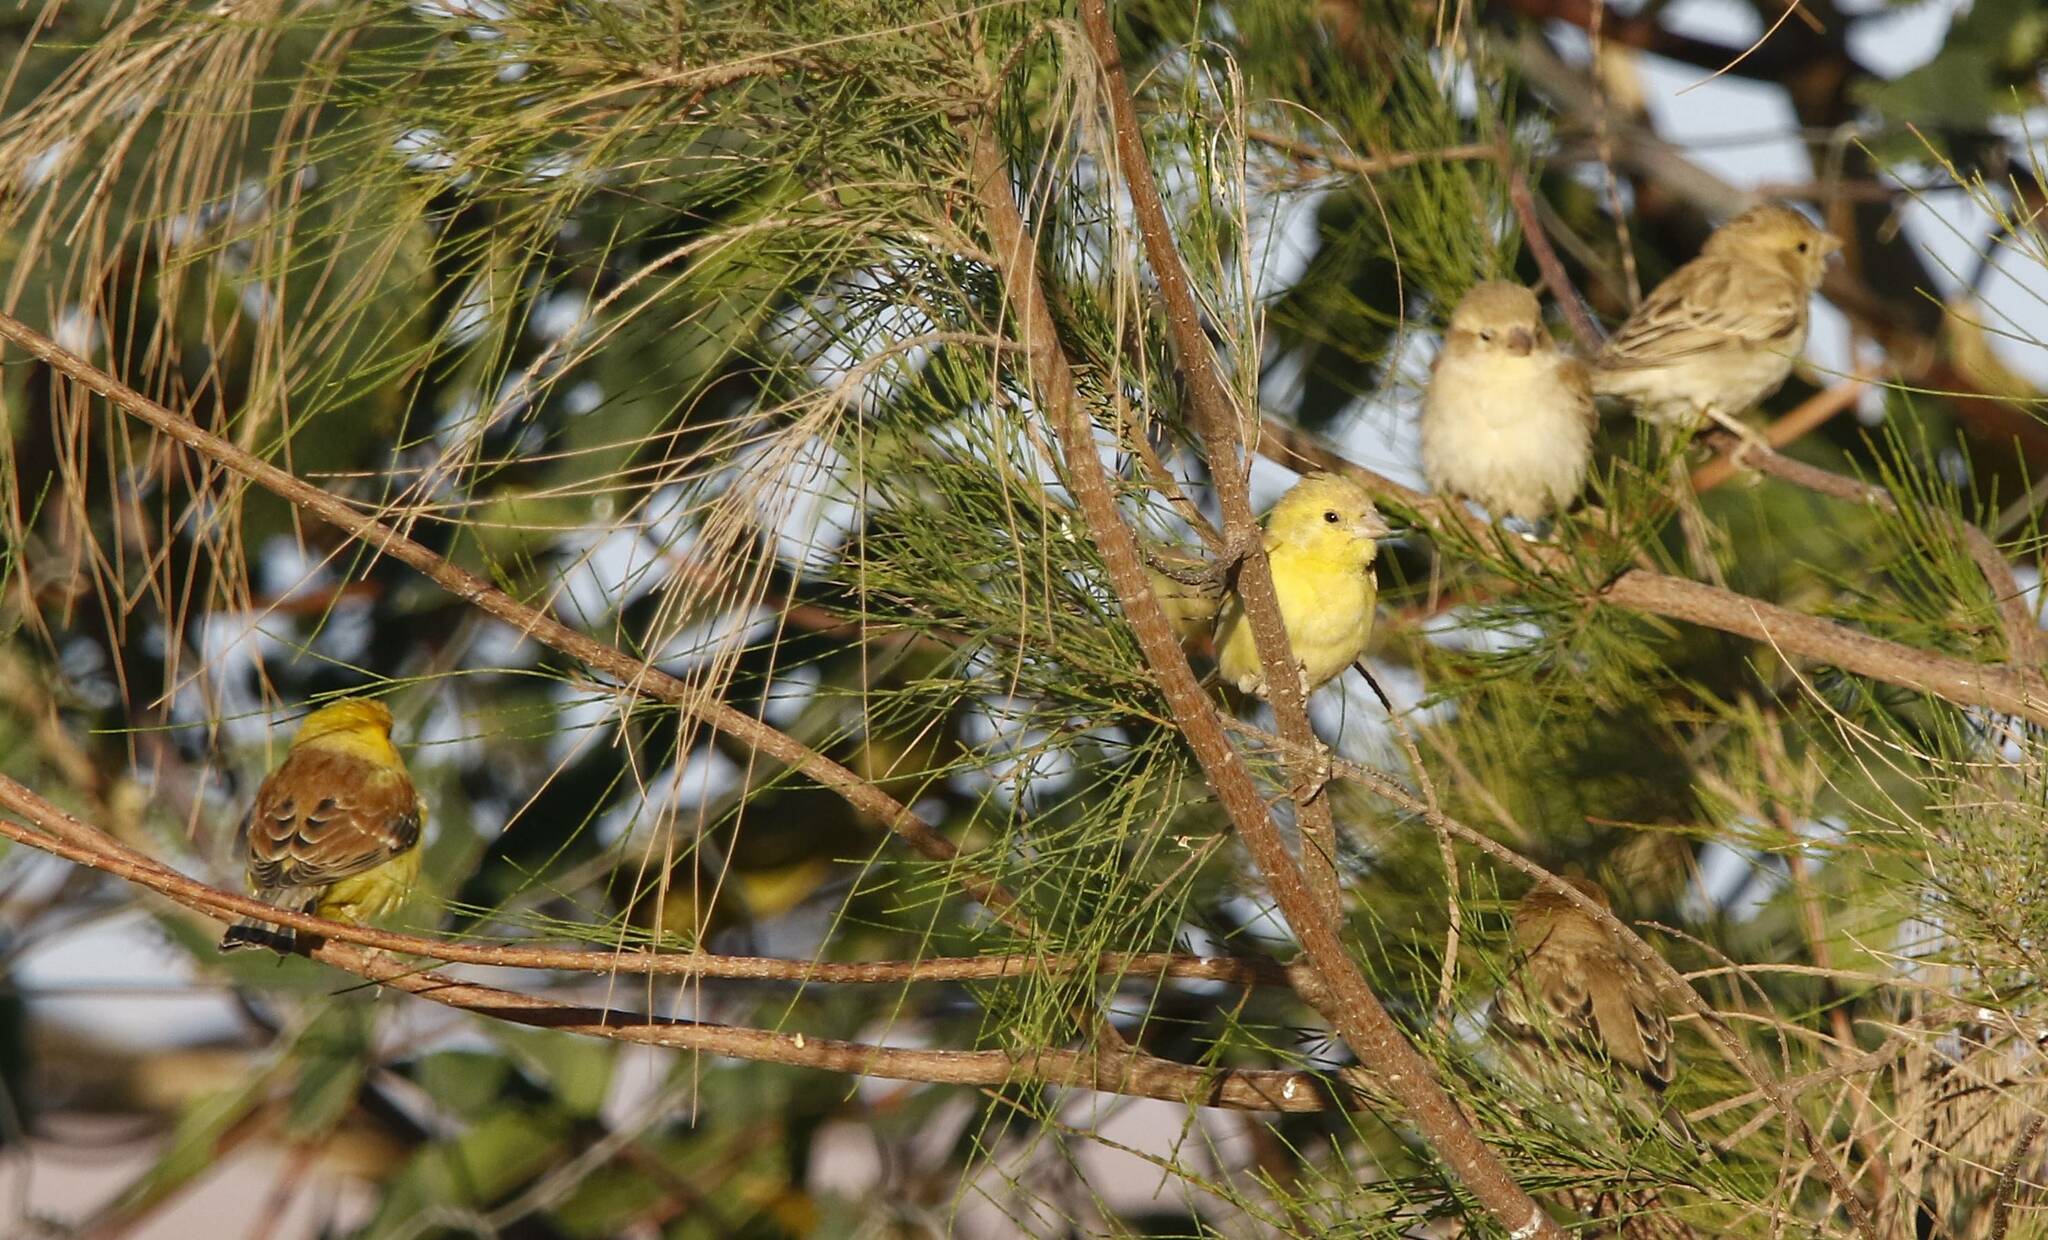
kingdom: Animalia
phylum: Chordata
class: Aves
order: Passeriformes
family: Passeridae
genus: Passer
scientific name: Passer luteus
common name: Sudan golden sparrow
